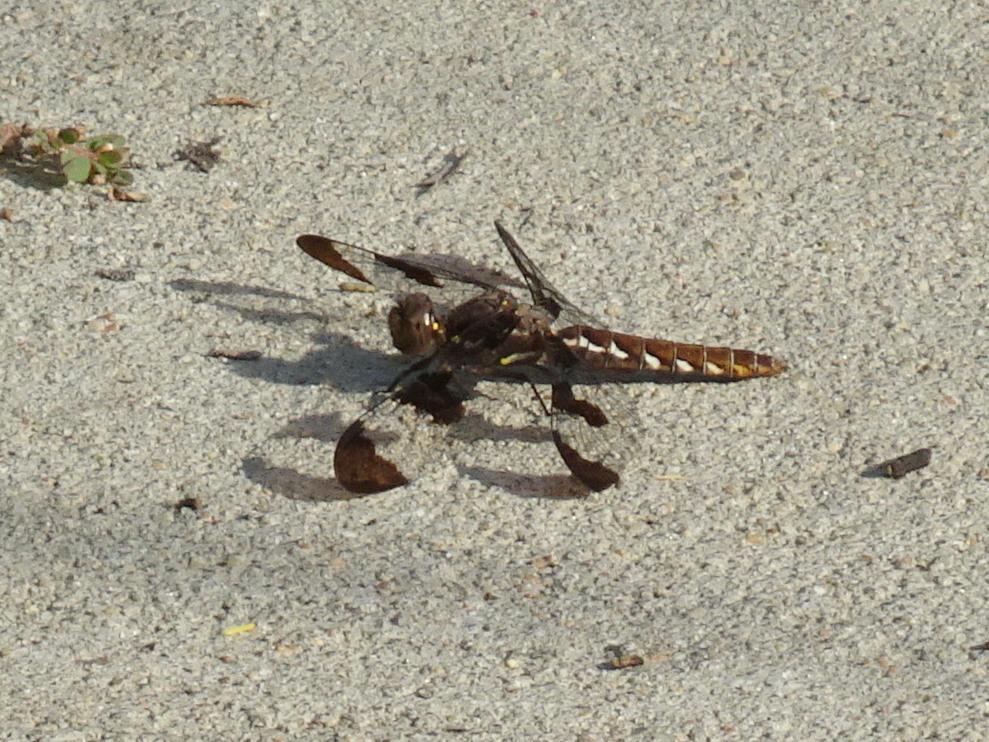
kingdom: Animalia
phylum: Arthropoda
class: Insecta
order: Odonata
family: Libellulidae
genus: Plathemis
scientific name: Plathemis lydia
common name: Common whitetail
